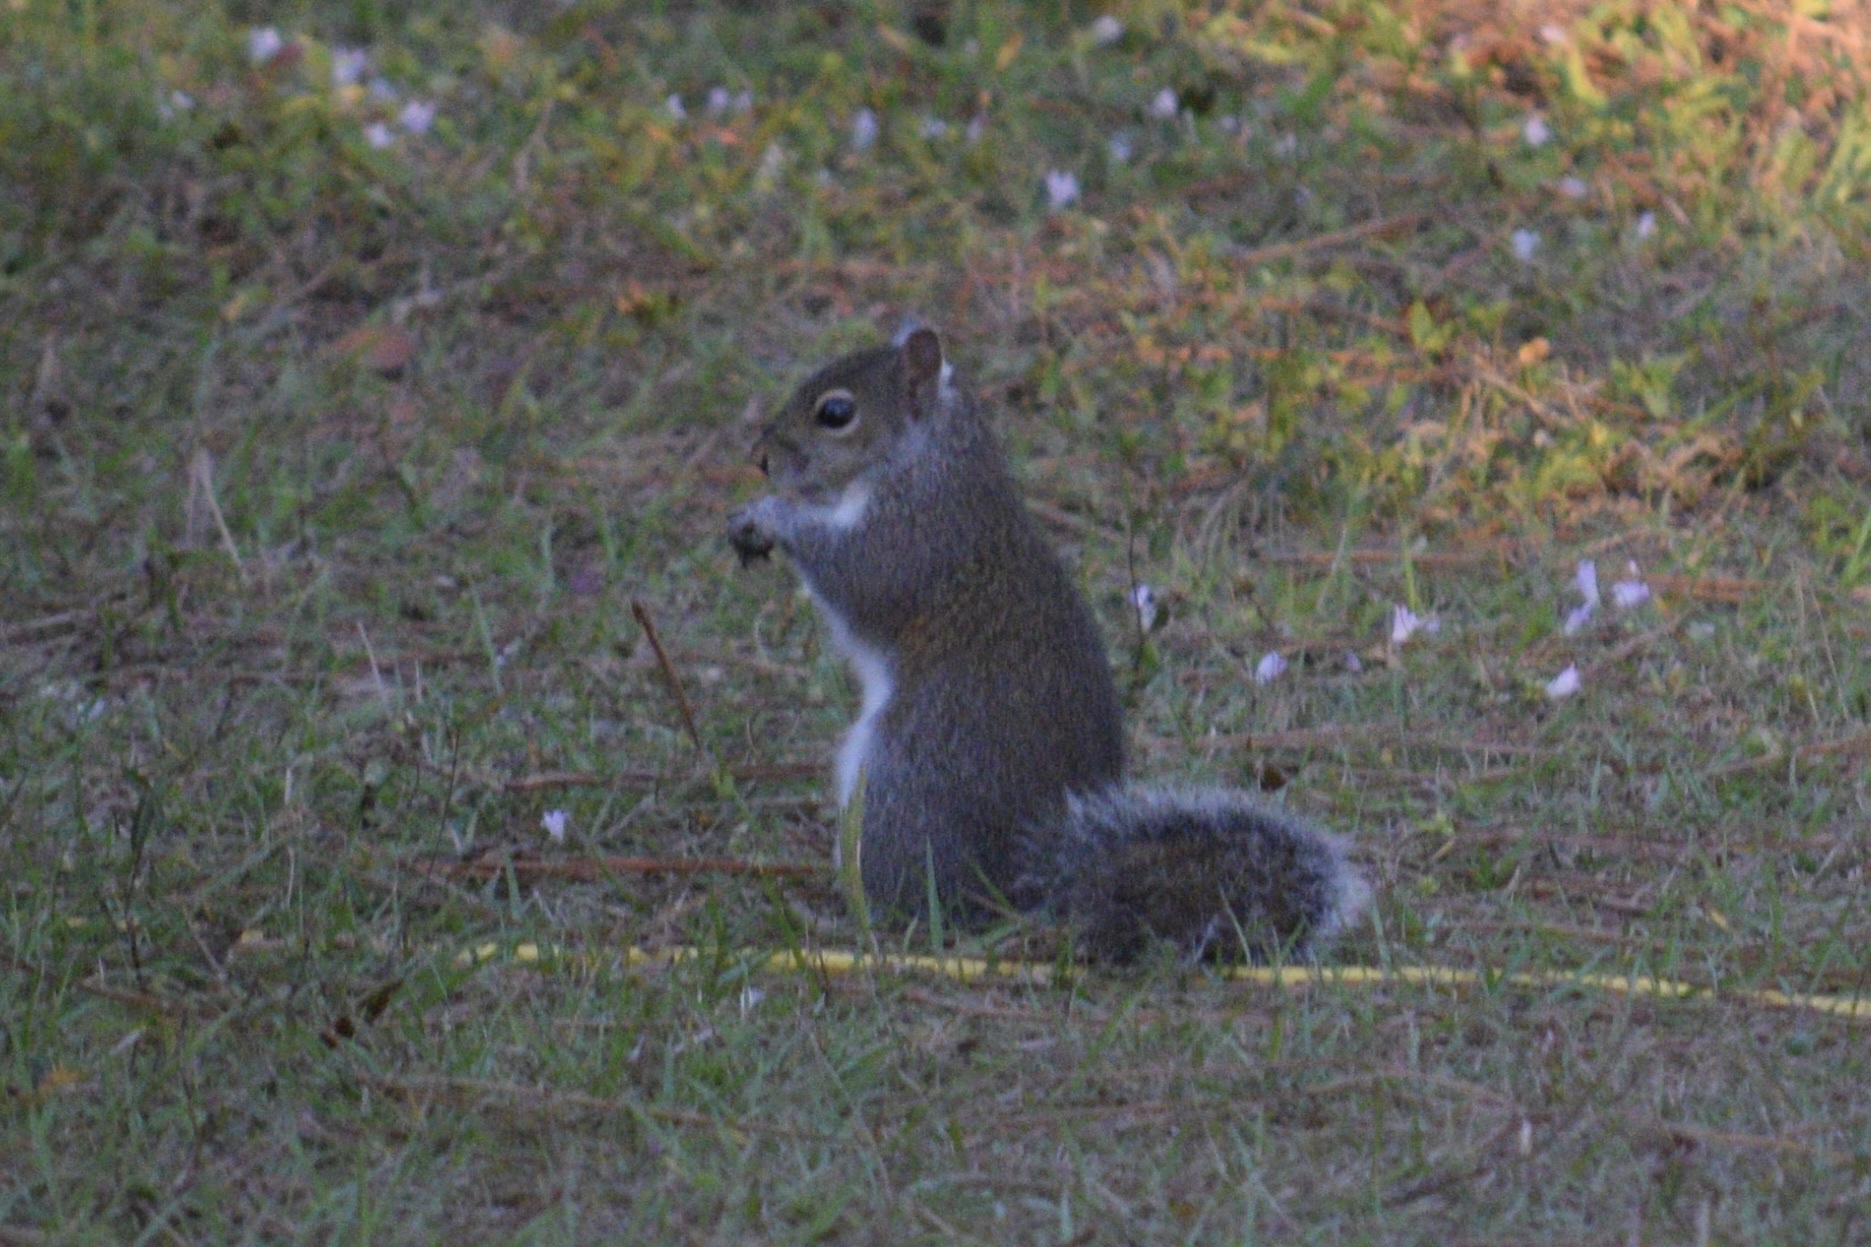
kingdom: Animalia
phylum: Chordata
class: Mammalia
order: Rodentia
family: Sciuridae
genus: Sciurus
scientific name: Sciurus carolinensis
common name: Eastern gray squirrel
